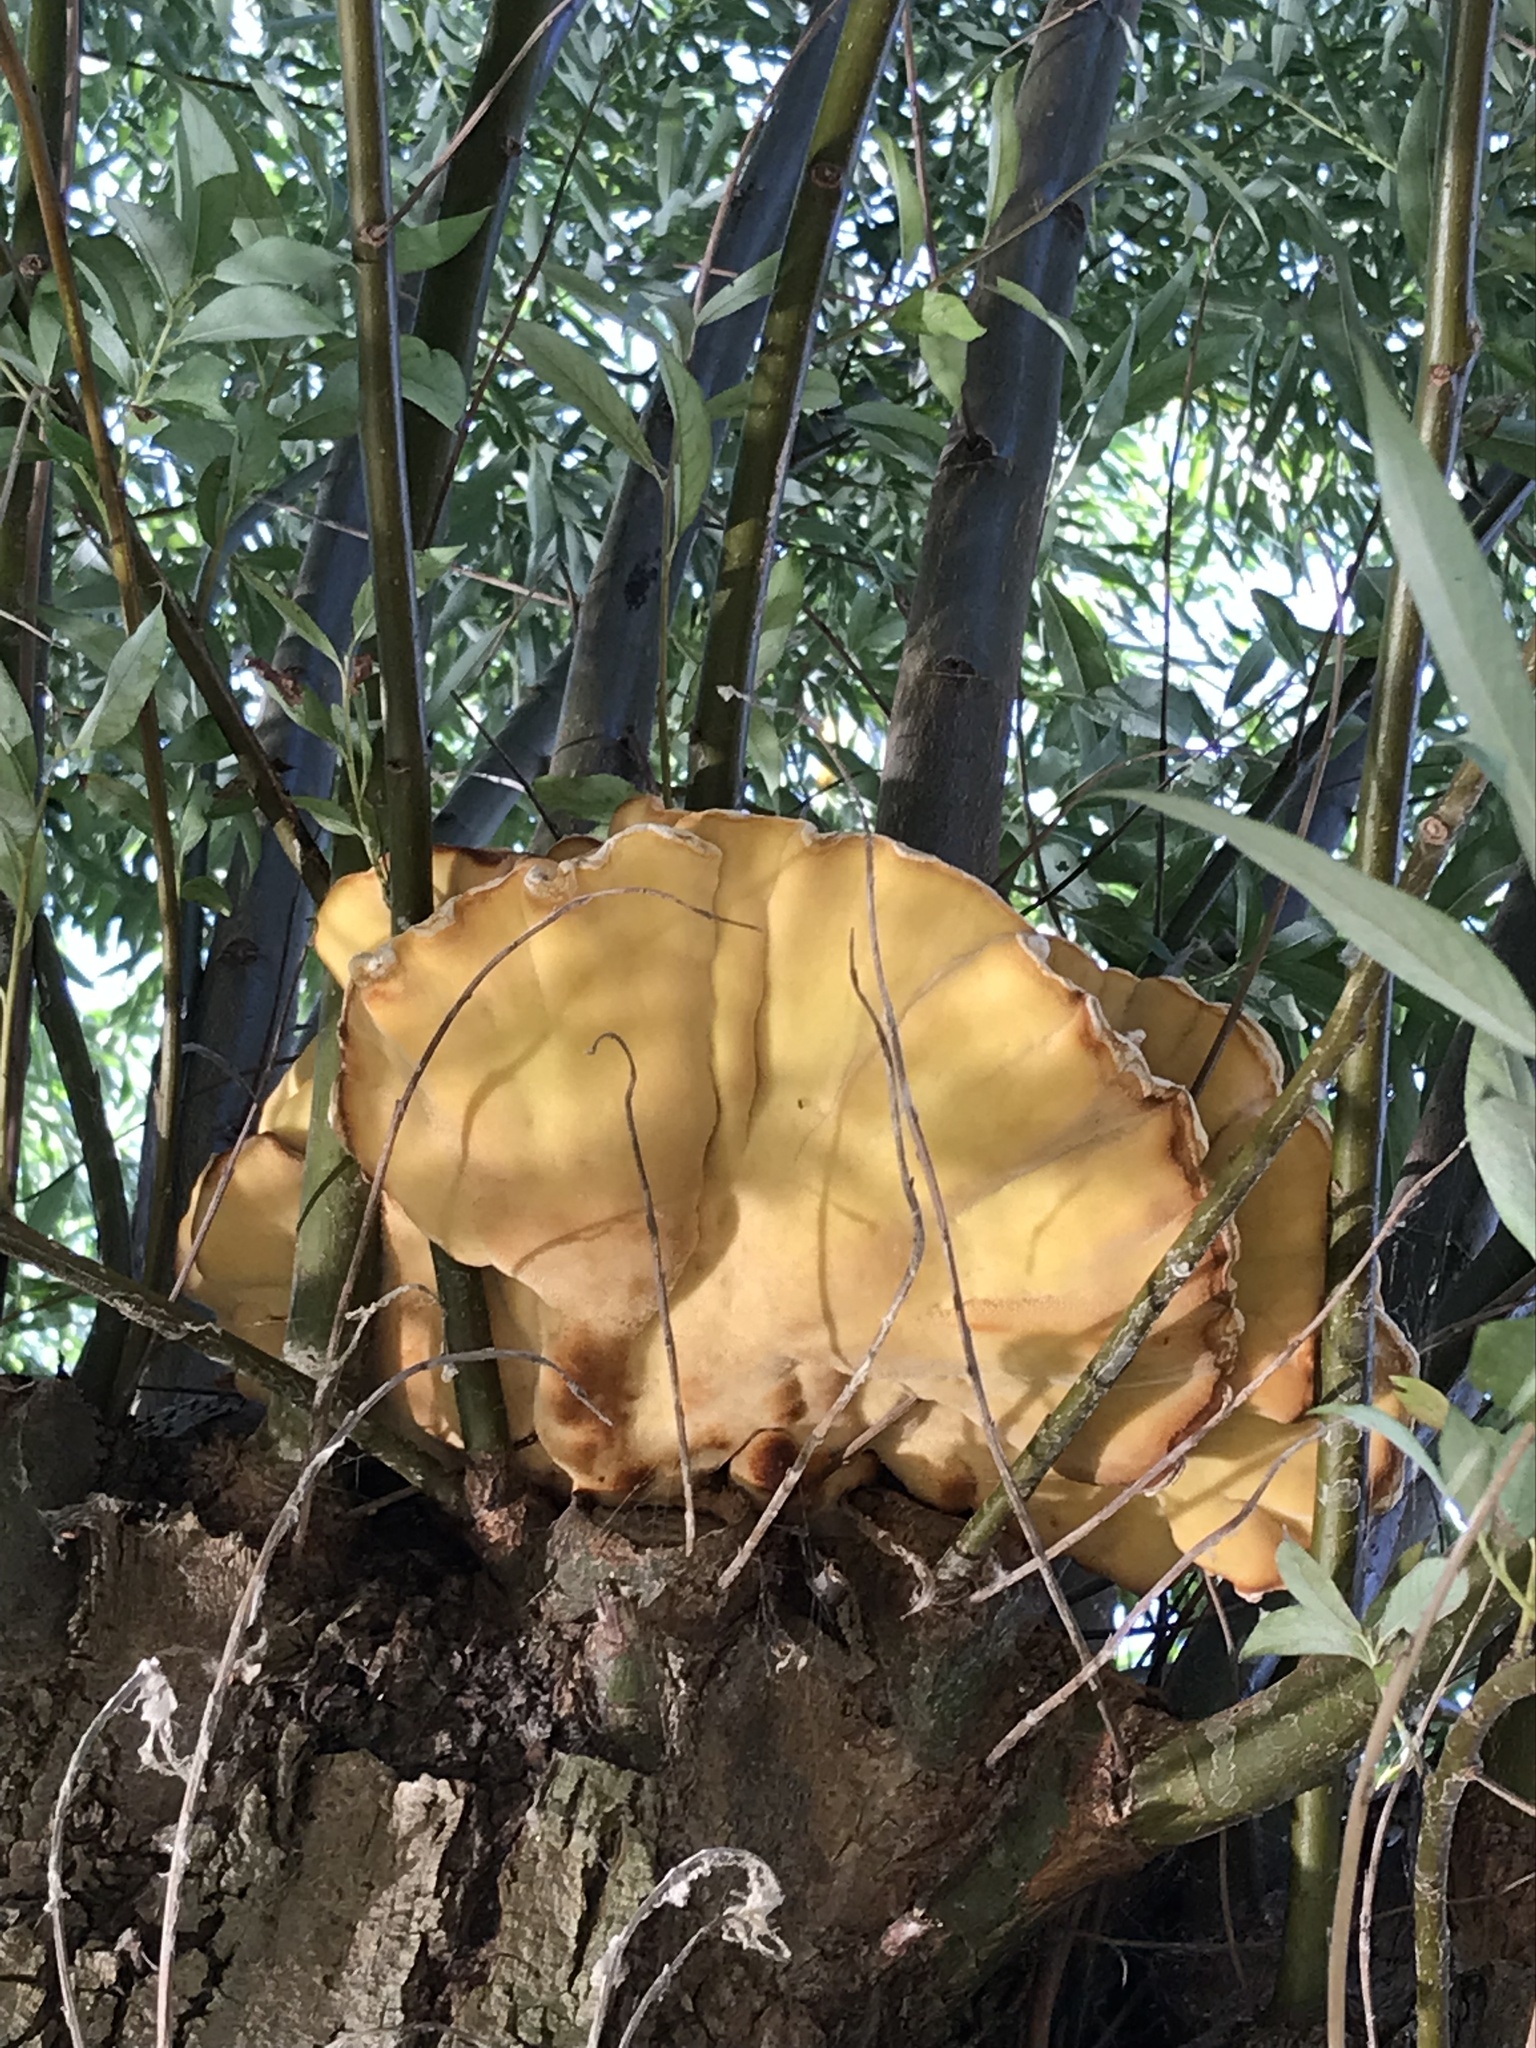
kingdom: Fungi
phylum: Basidiomycota
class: Agaricomycetes
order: Polyporales
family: Laetiporaceae
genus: Laetiporus
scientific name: Laetiporus sulphureus
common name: Chicken of the woods
